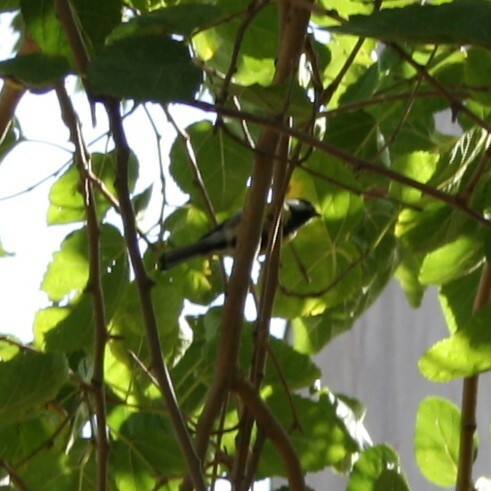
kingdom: Animalia
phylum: Chordata
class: Aves
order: Passeriformes
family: Paridae
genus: Parus
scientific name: Parus major
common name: Great tit
